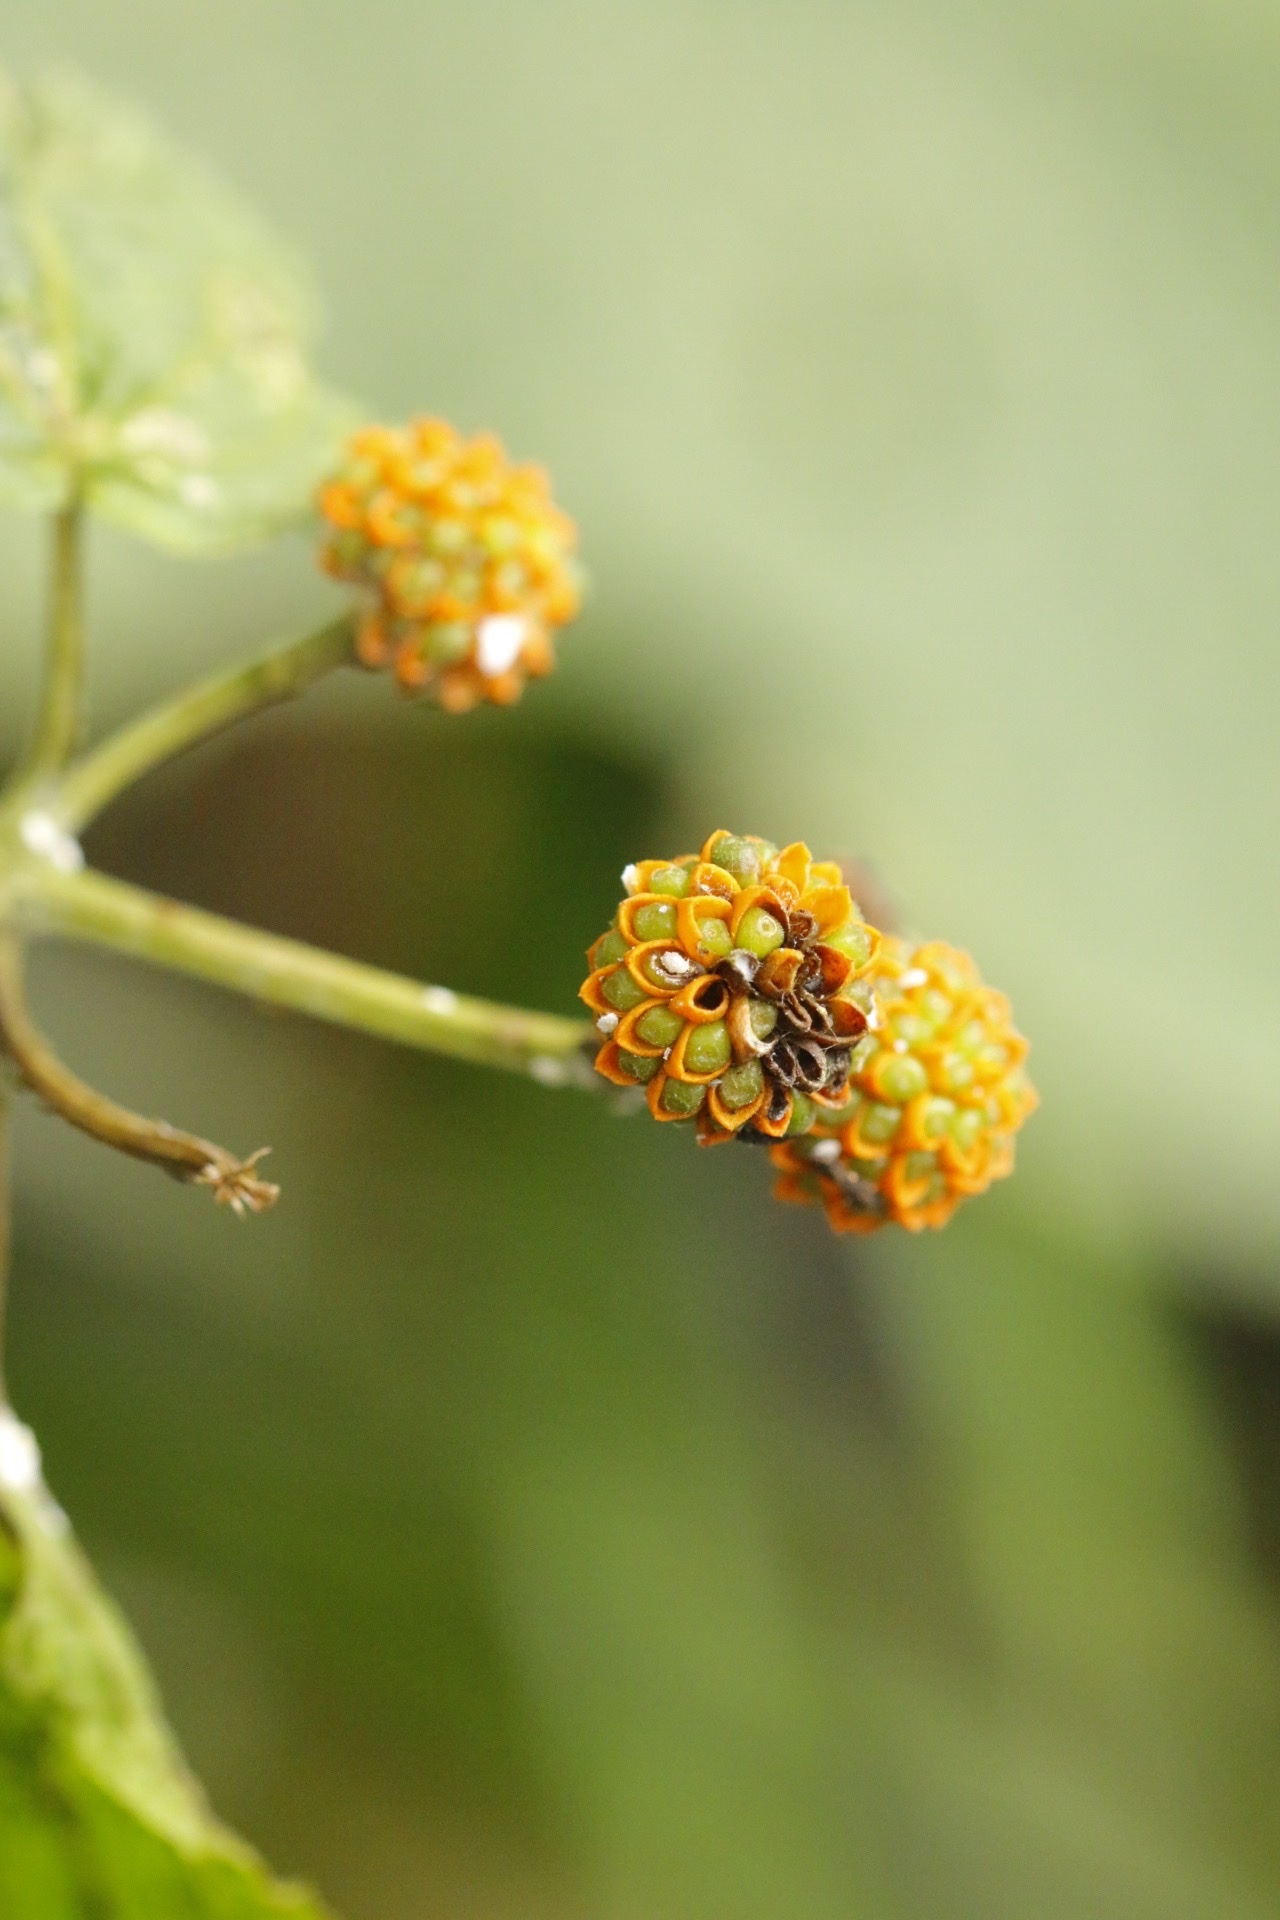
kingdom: Plantae
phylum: Tracheophyta
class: Magnoliopsida
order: Asterales
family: Asteraceae
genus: Tilesia
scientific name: Tilesia baccata
